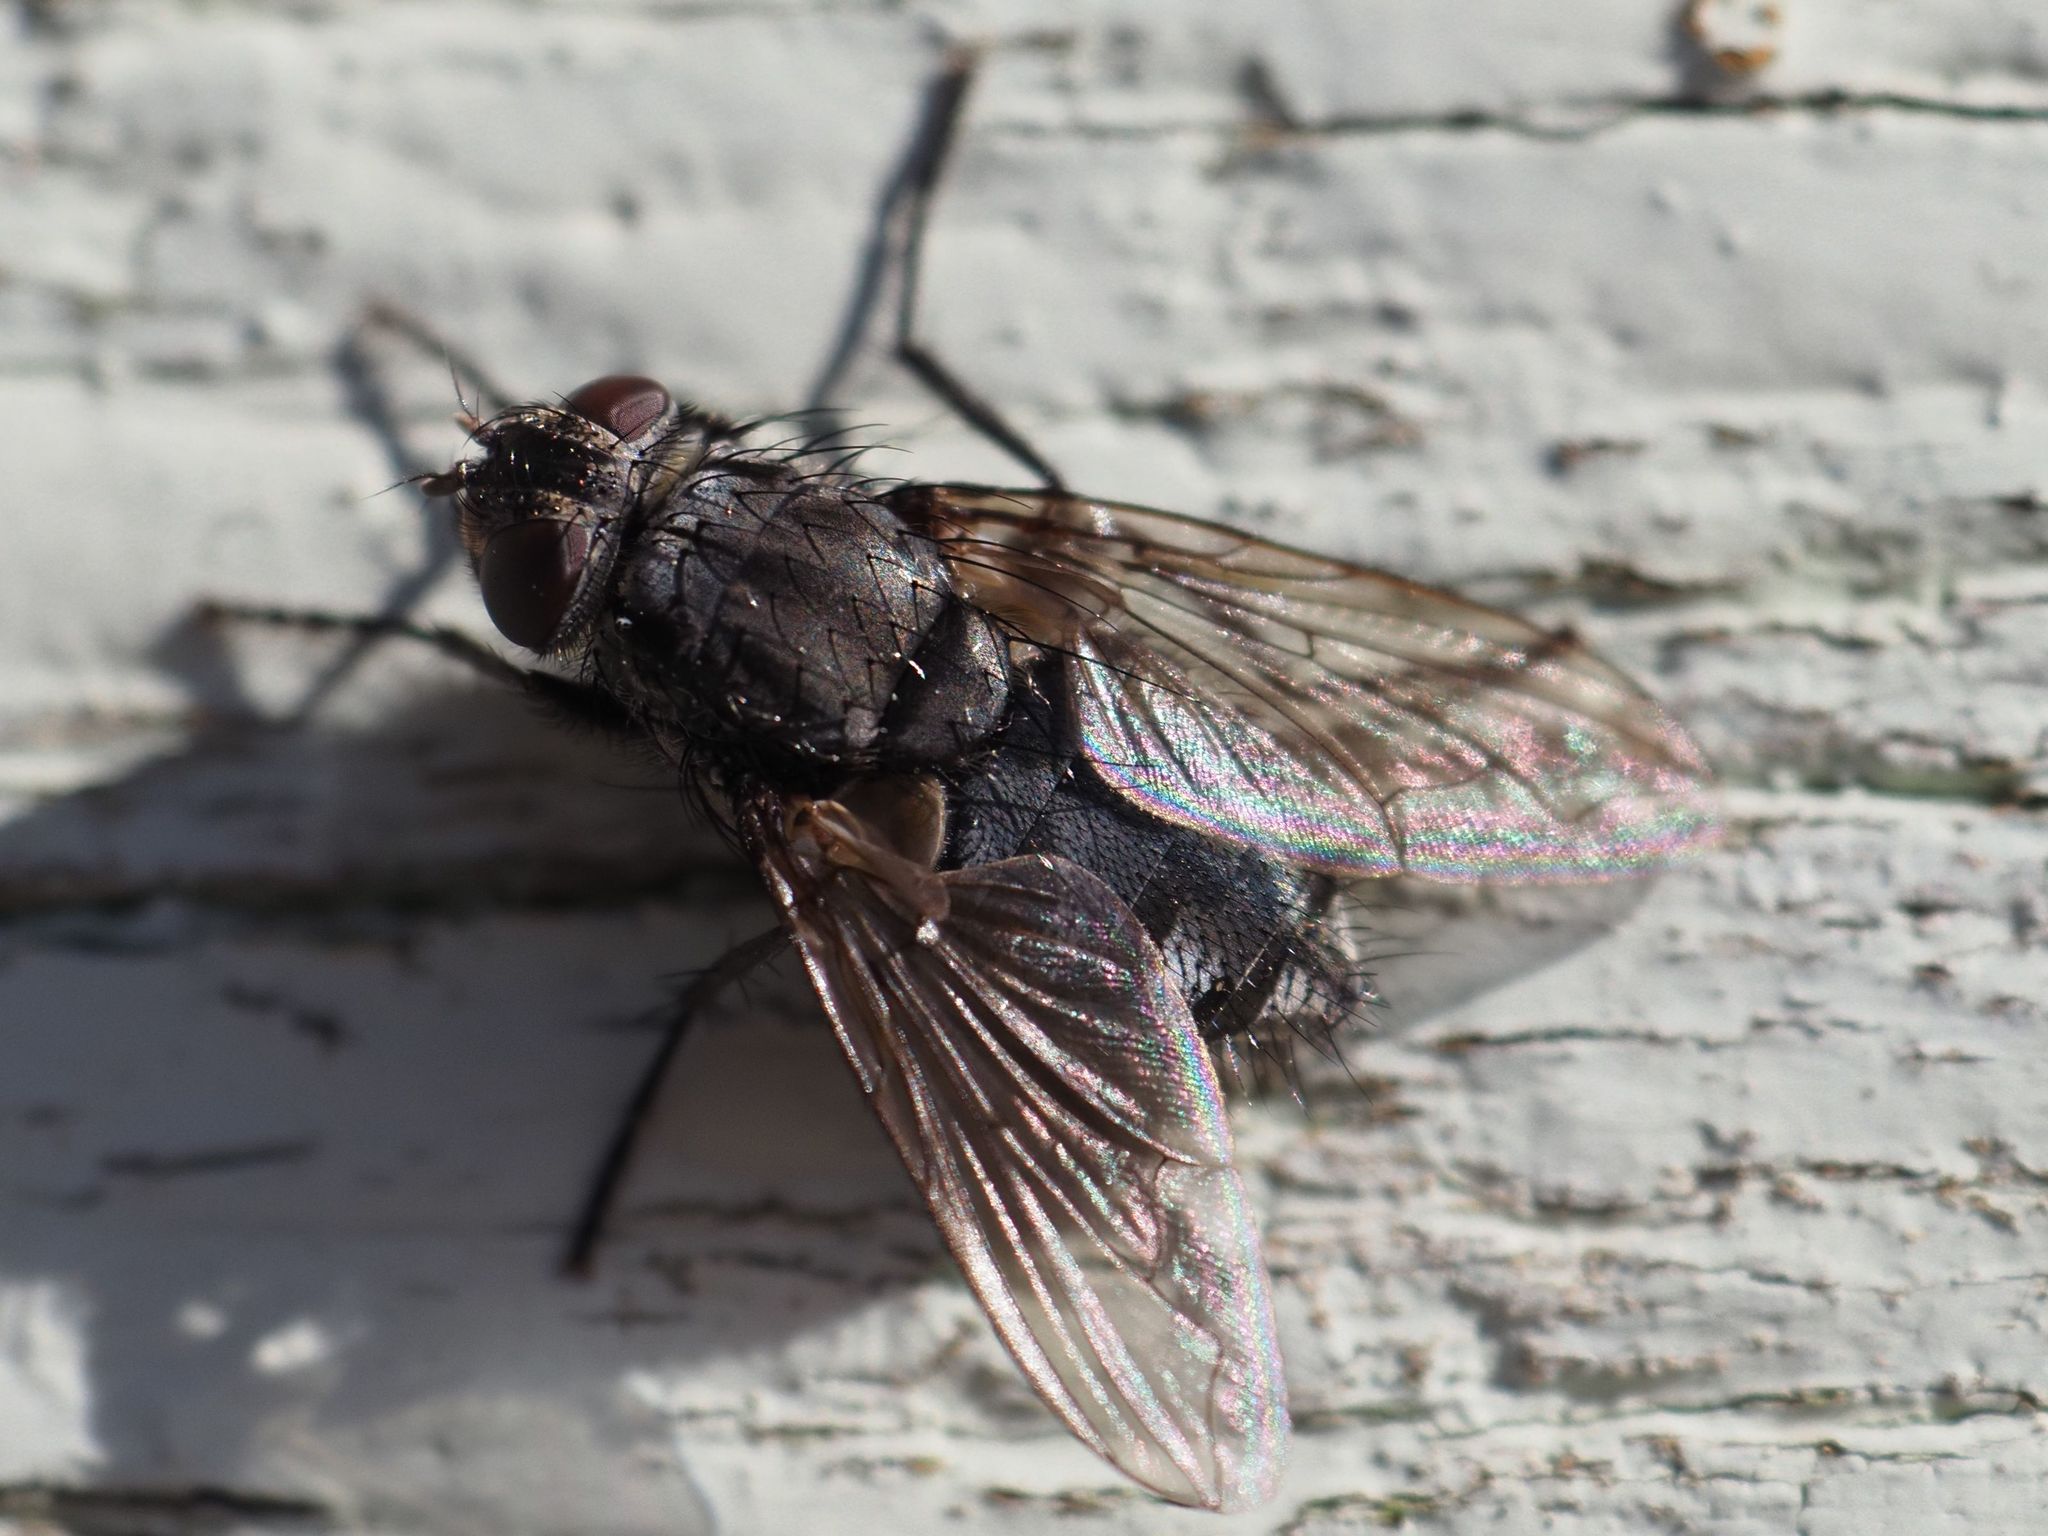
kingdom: Animalia
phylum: Arthropoda
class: Insecta
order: Diptera
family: Polleniidae
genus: Pollenia
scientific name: Pollenia vagabunda
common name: Vagabund cluster fly
